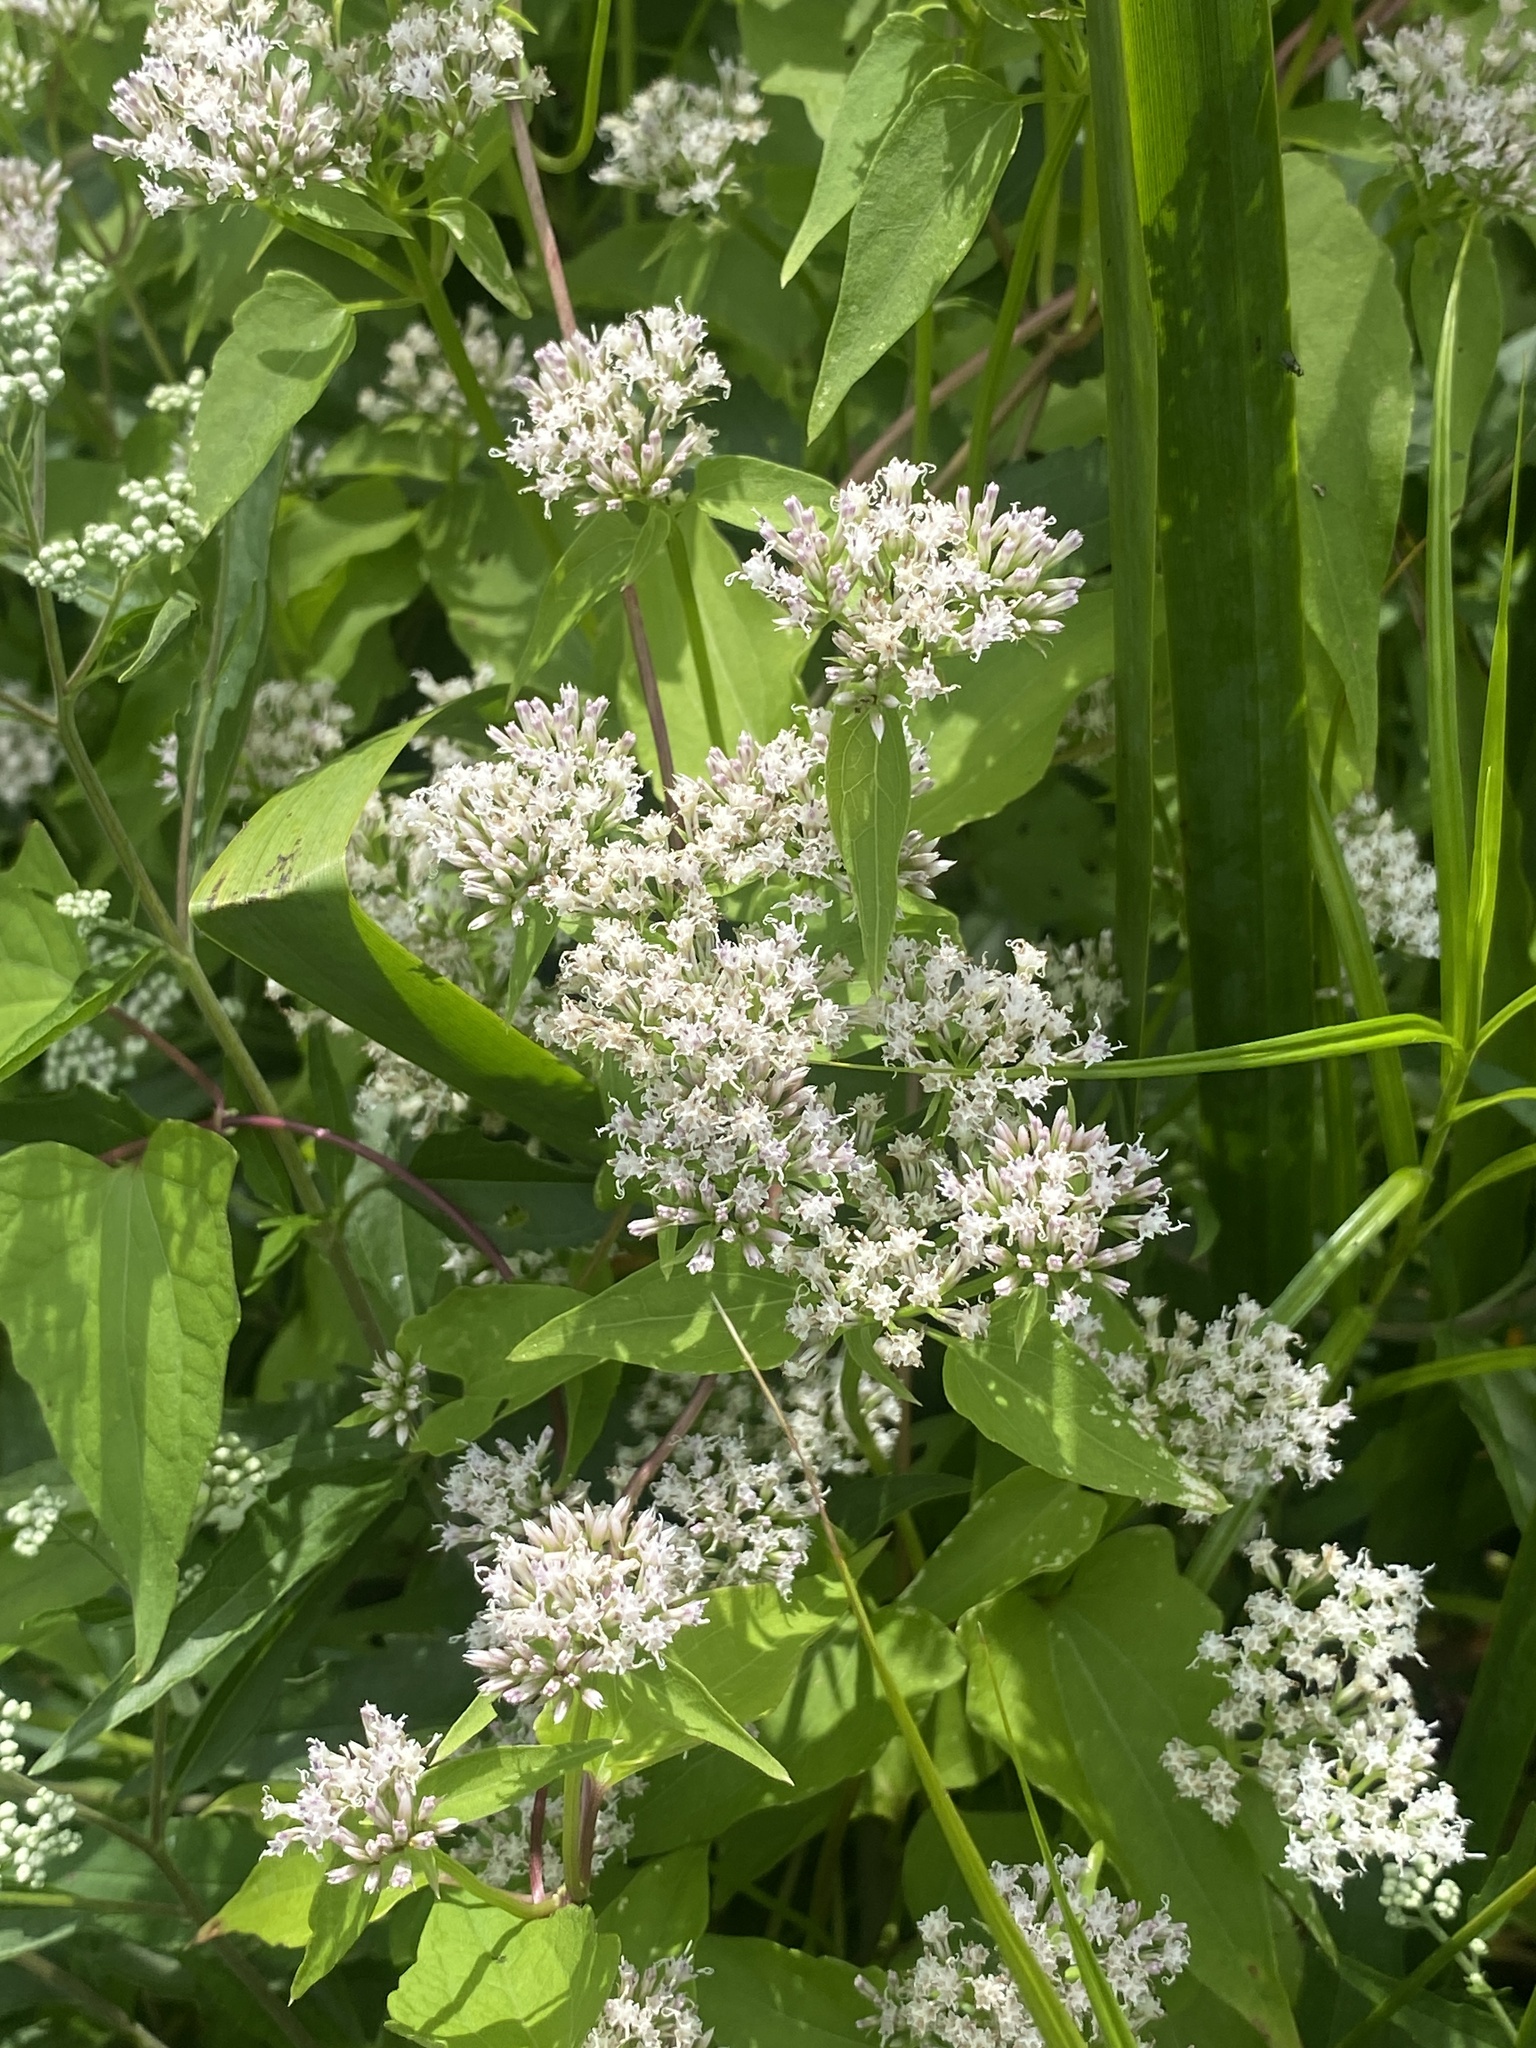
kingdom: Plantae
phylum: Tracheophyta
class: Magnoliopsida
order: Asterales
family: Asteraceae
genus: Mikania
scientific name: Mikania scandens
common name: Climbing hempvine
